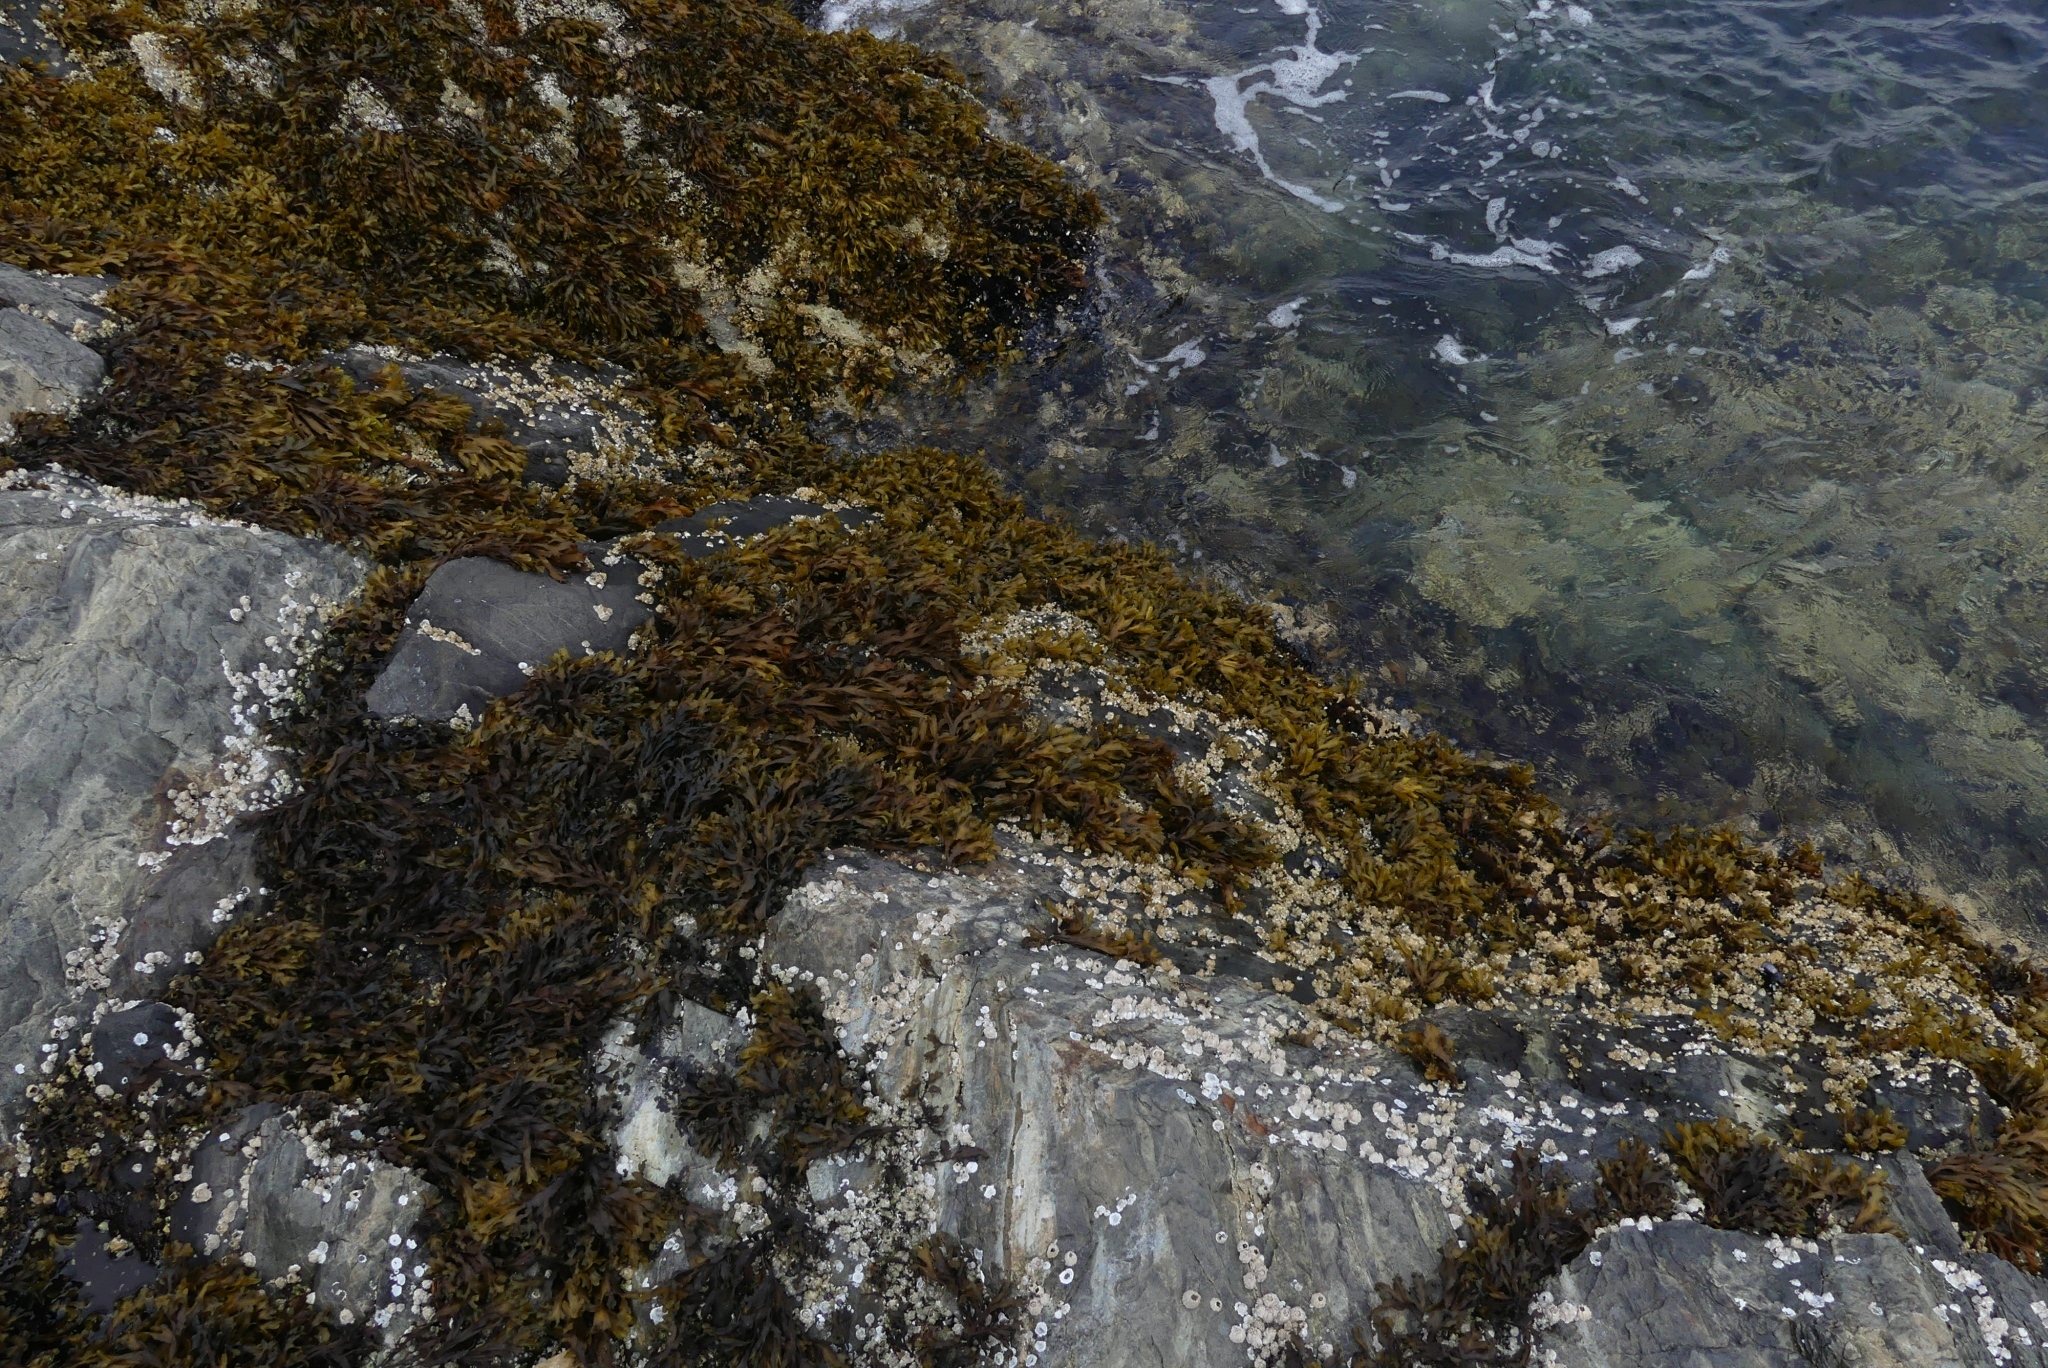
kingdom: Chromista
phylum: Ochrophyta
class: Phaeophyceae
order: Fucales
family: Fucaceae
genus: Fucus
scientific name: Fucus distichus
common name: Rockweed
